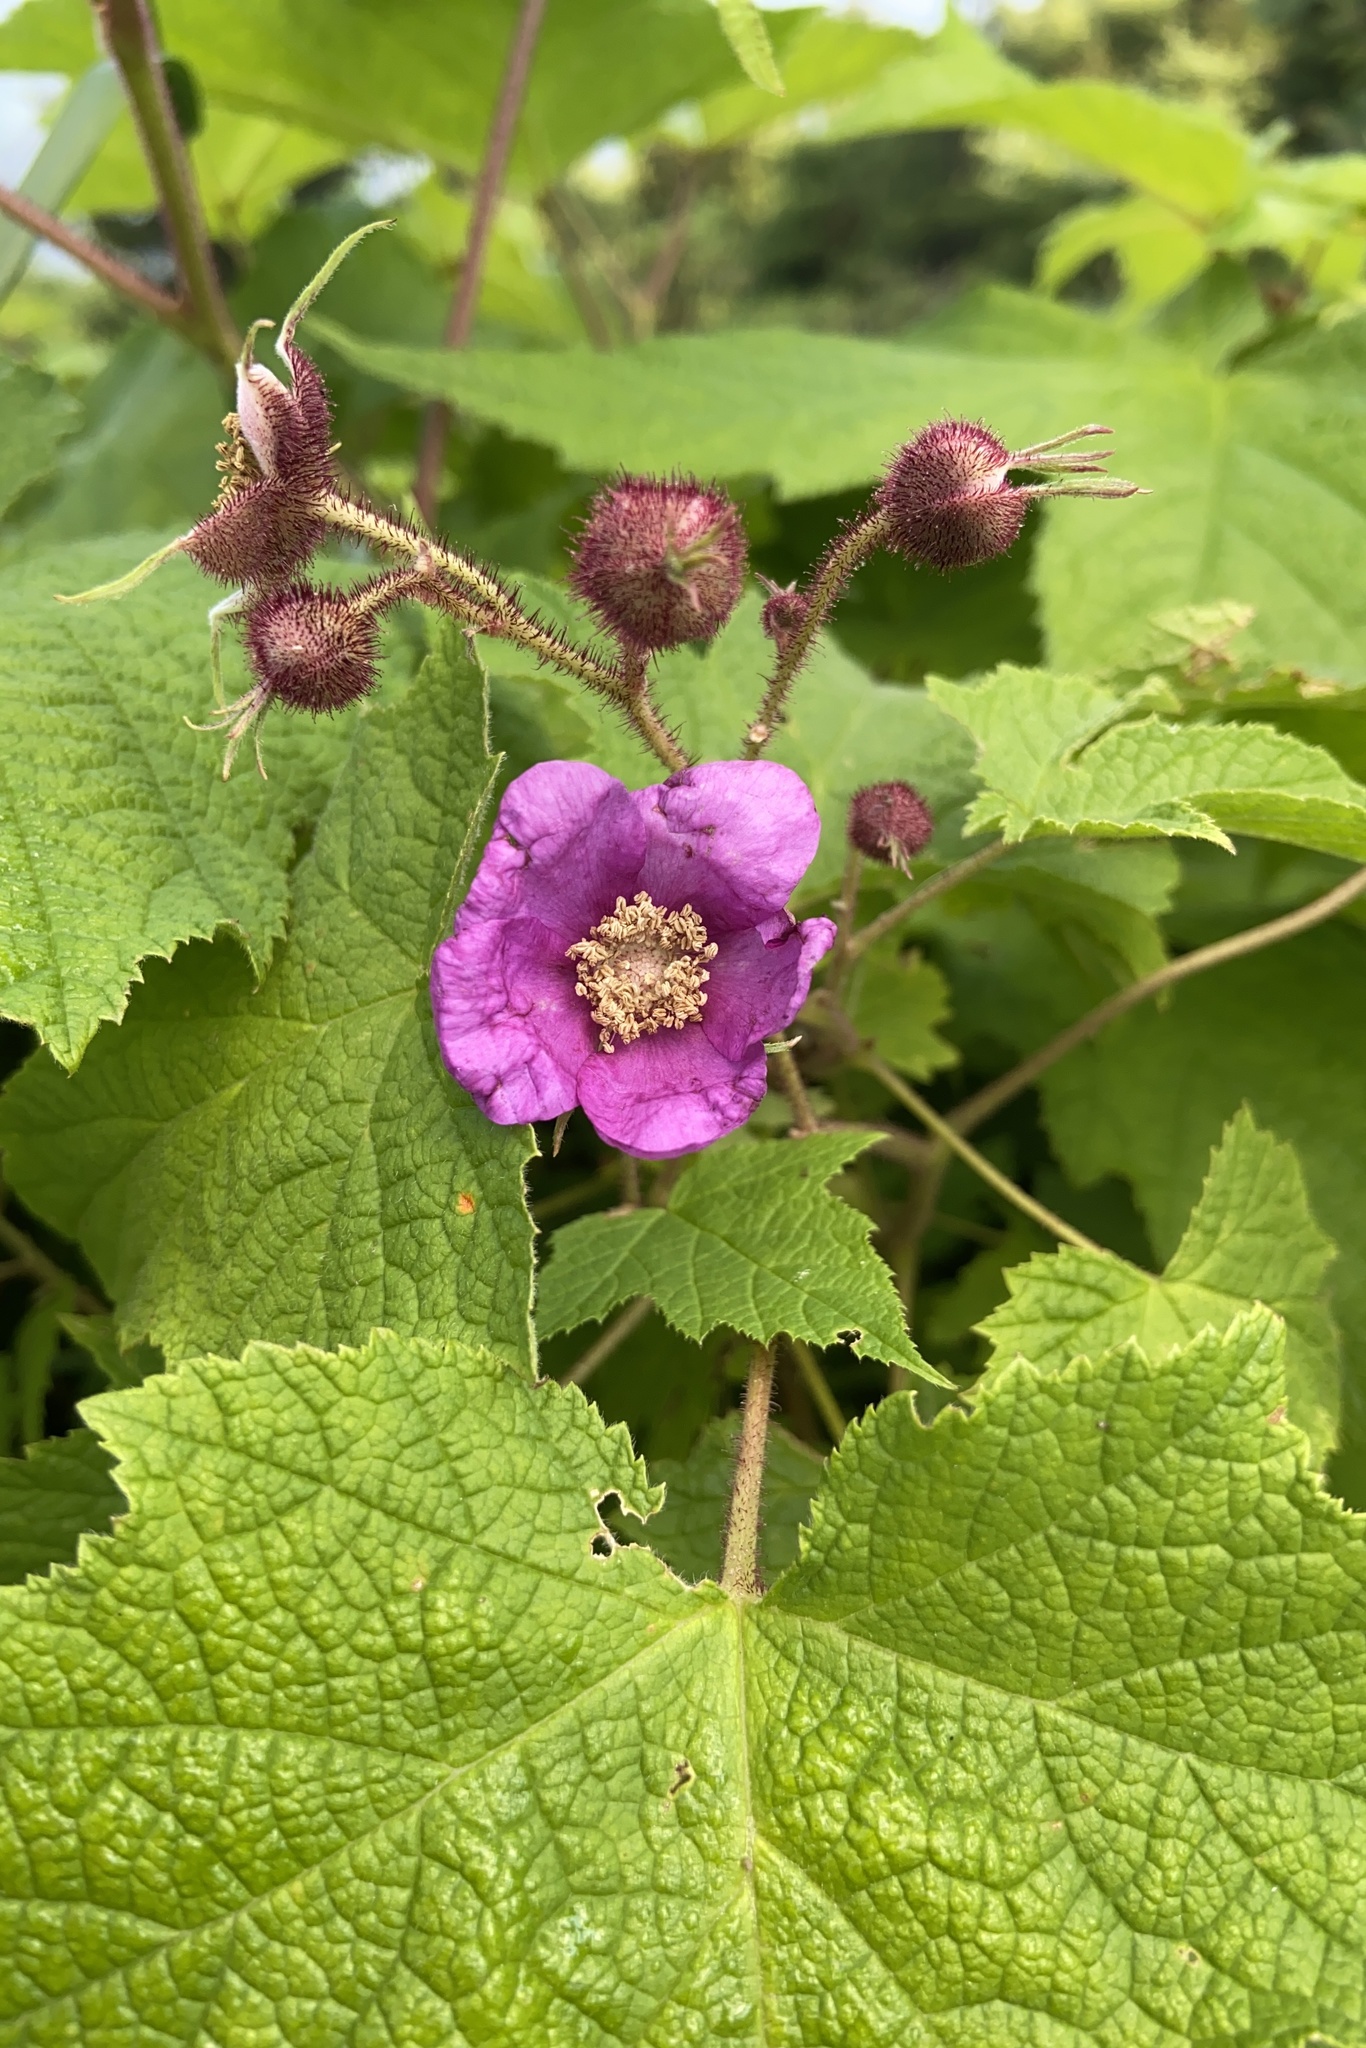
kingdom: Plantae
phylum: Tracheophyta
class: Magnoliopsida
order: Rosales
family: Rosaceae
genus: Rubus
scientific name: Rubus odoratus
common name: Purple-flowered raspberry
